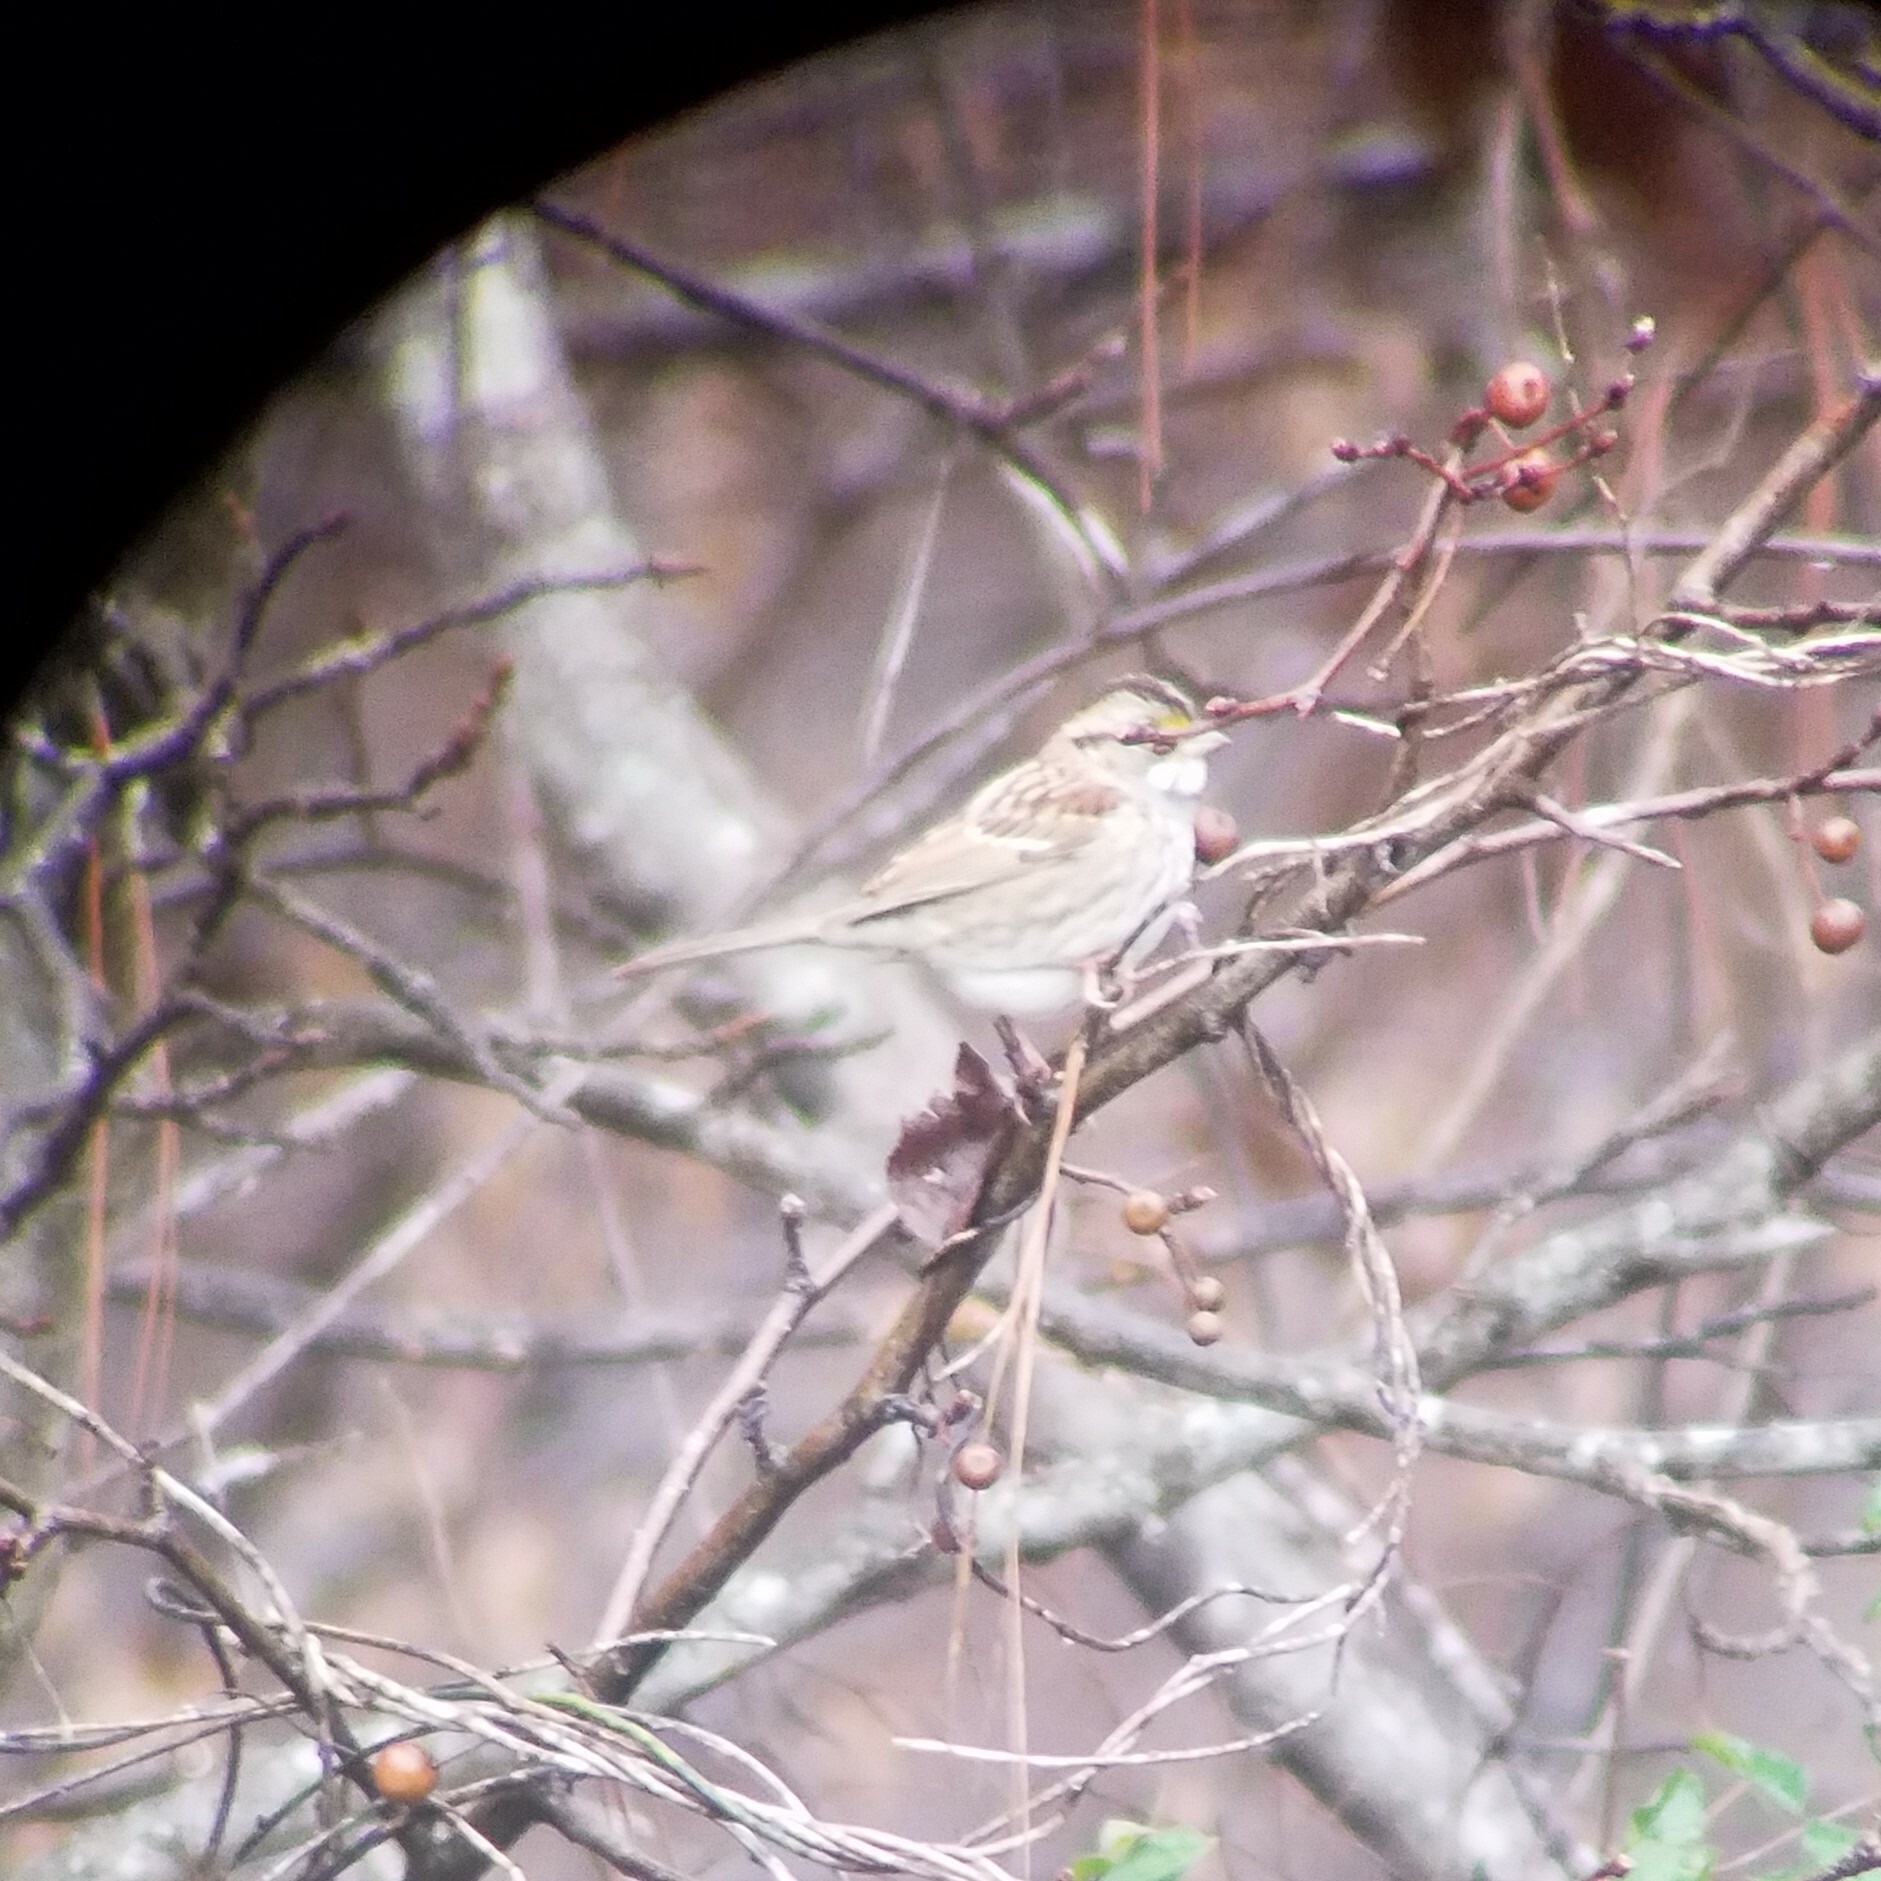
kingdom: Animalia
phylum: Chordata
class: Aves
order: Passeriformes
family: Passerellidae
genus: Zonotrichia
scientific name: Zonotrichia albicollis
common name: White-throated sparrow
